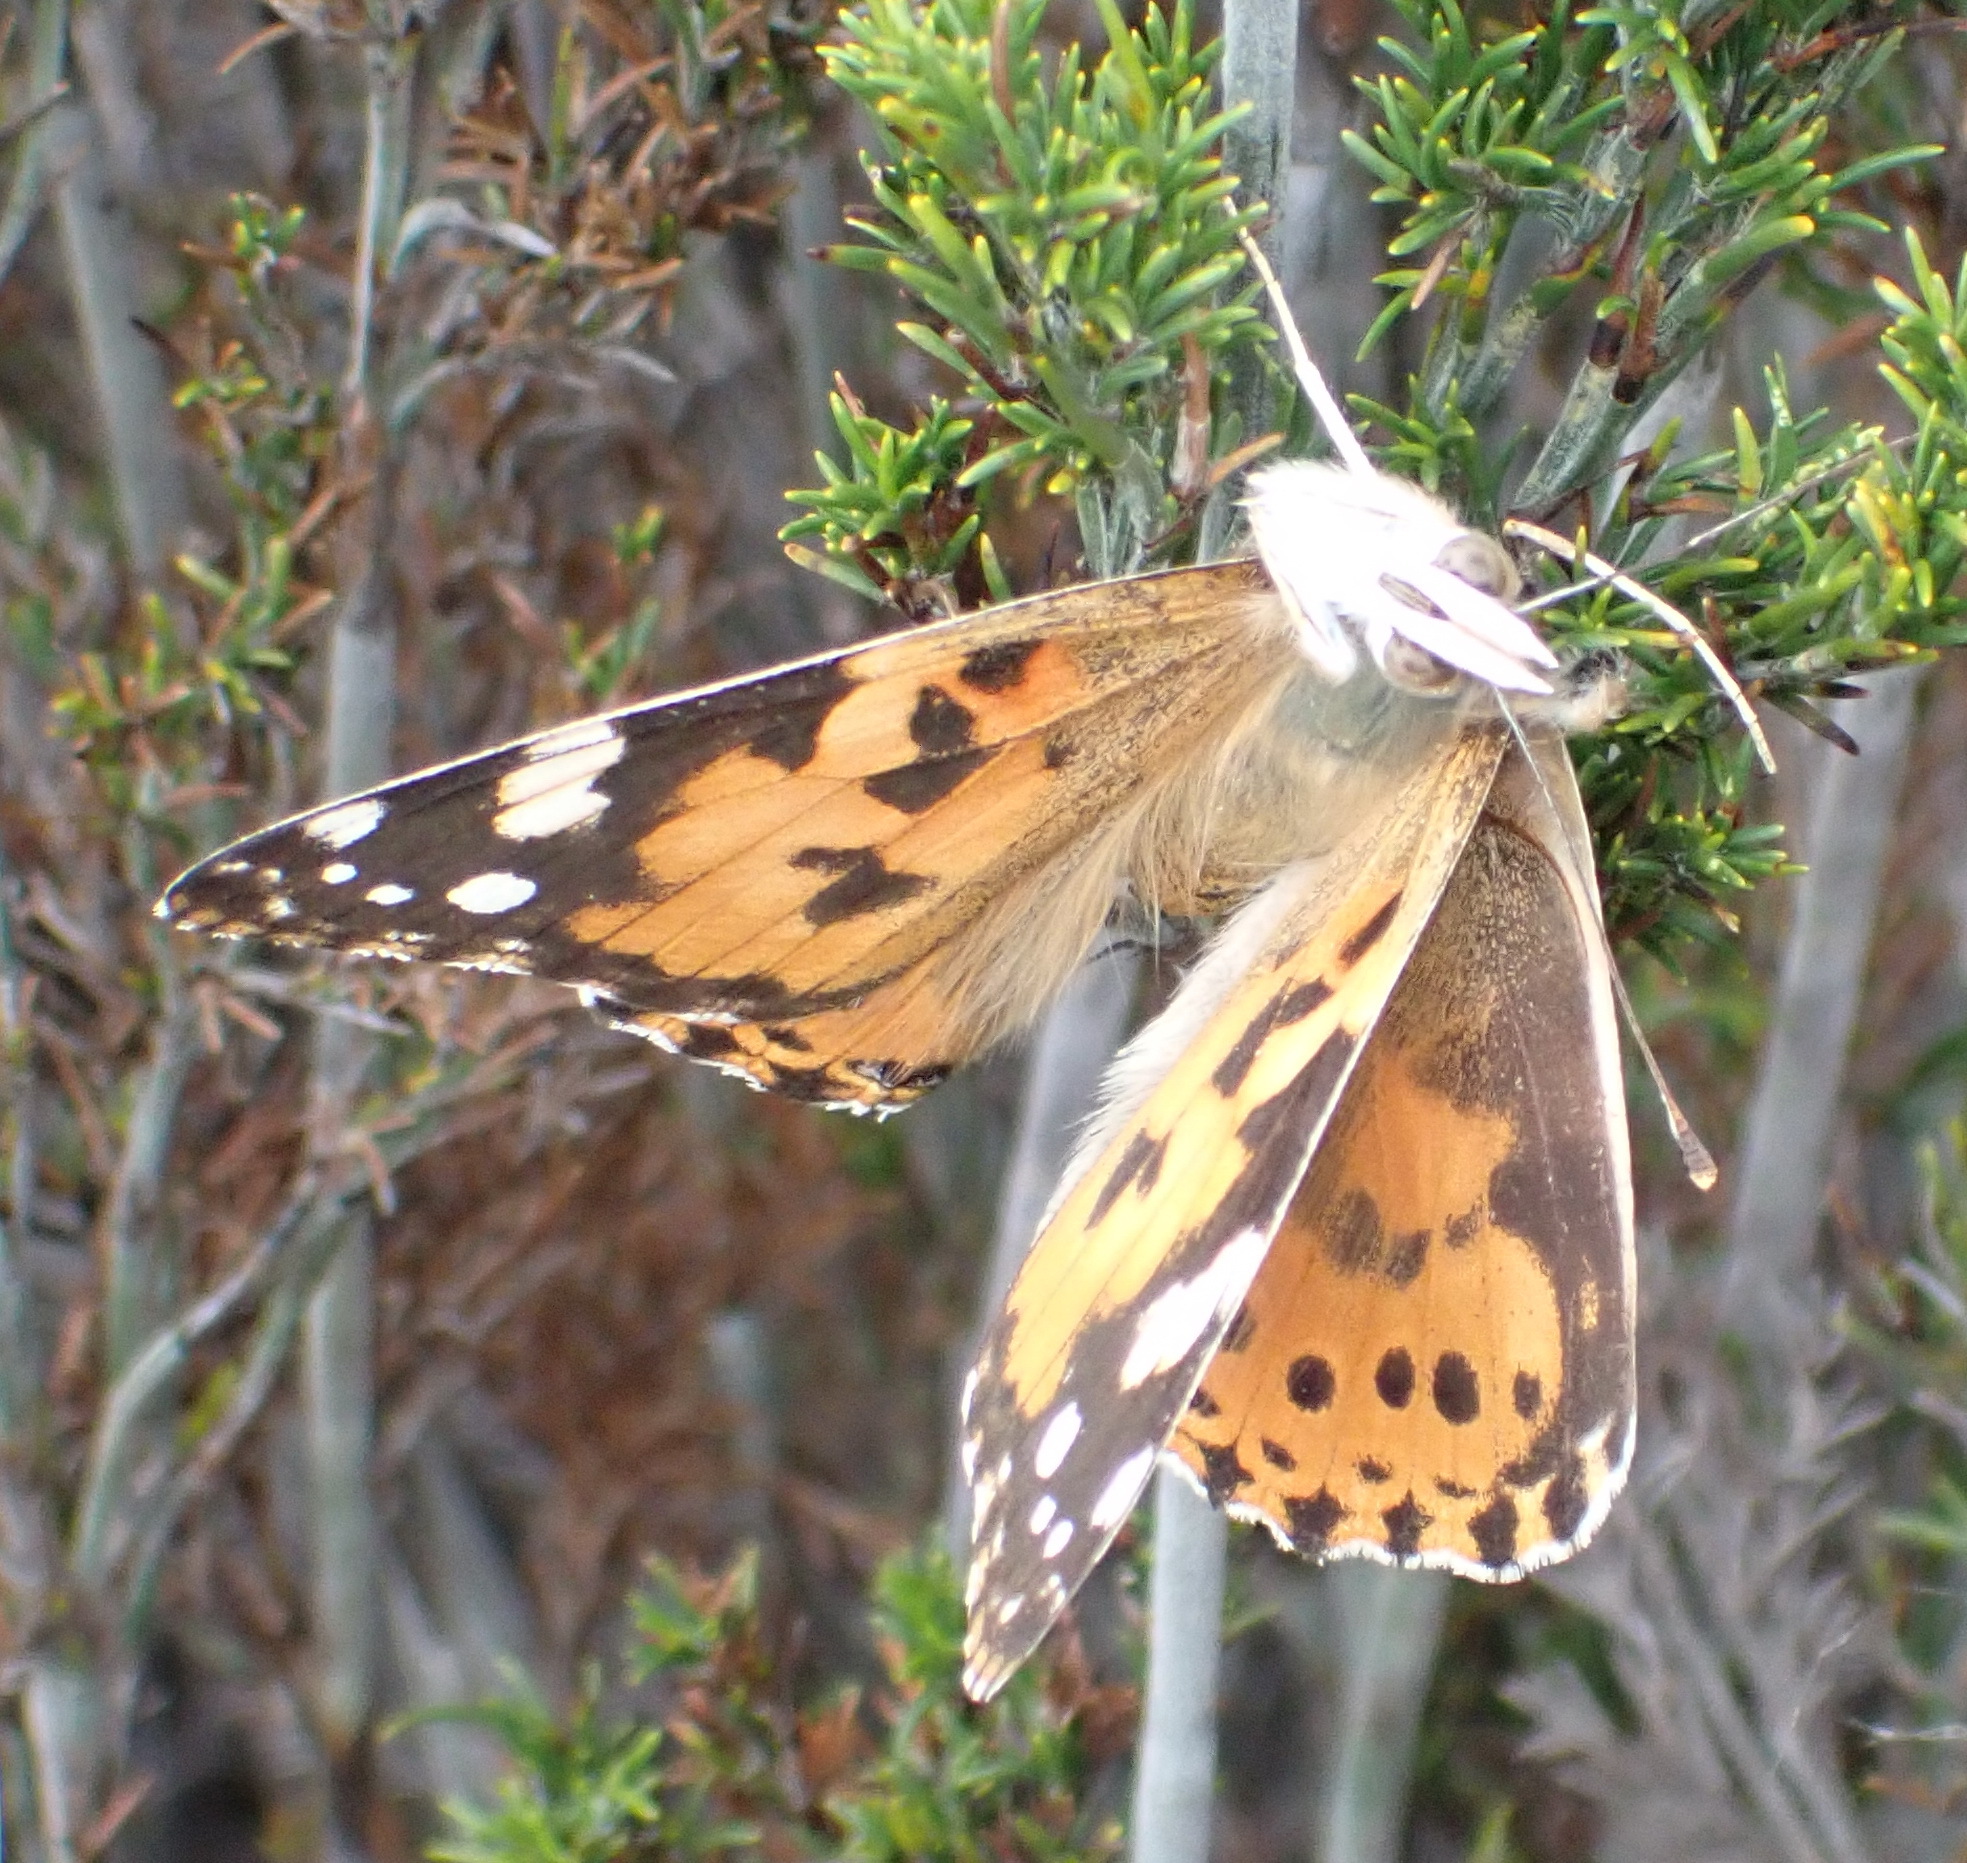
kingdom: Animalia
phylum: Arthropoda
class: Insecta
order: Lepidoptera
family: Nymphalidae
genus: Vanessa
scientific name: Vanessa cardui
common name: Painted lady
